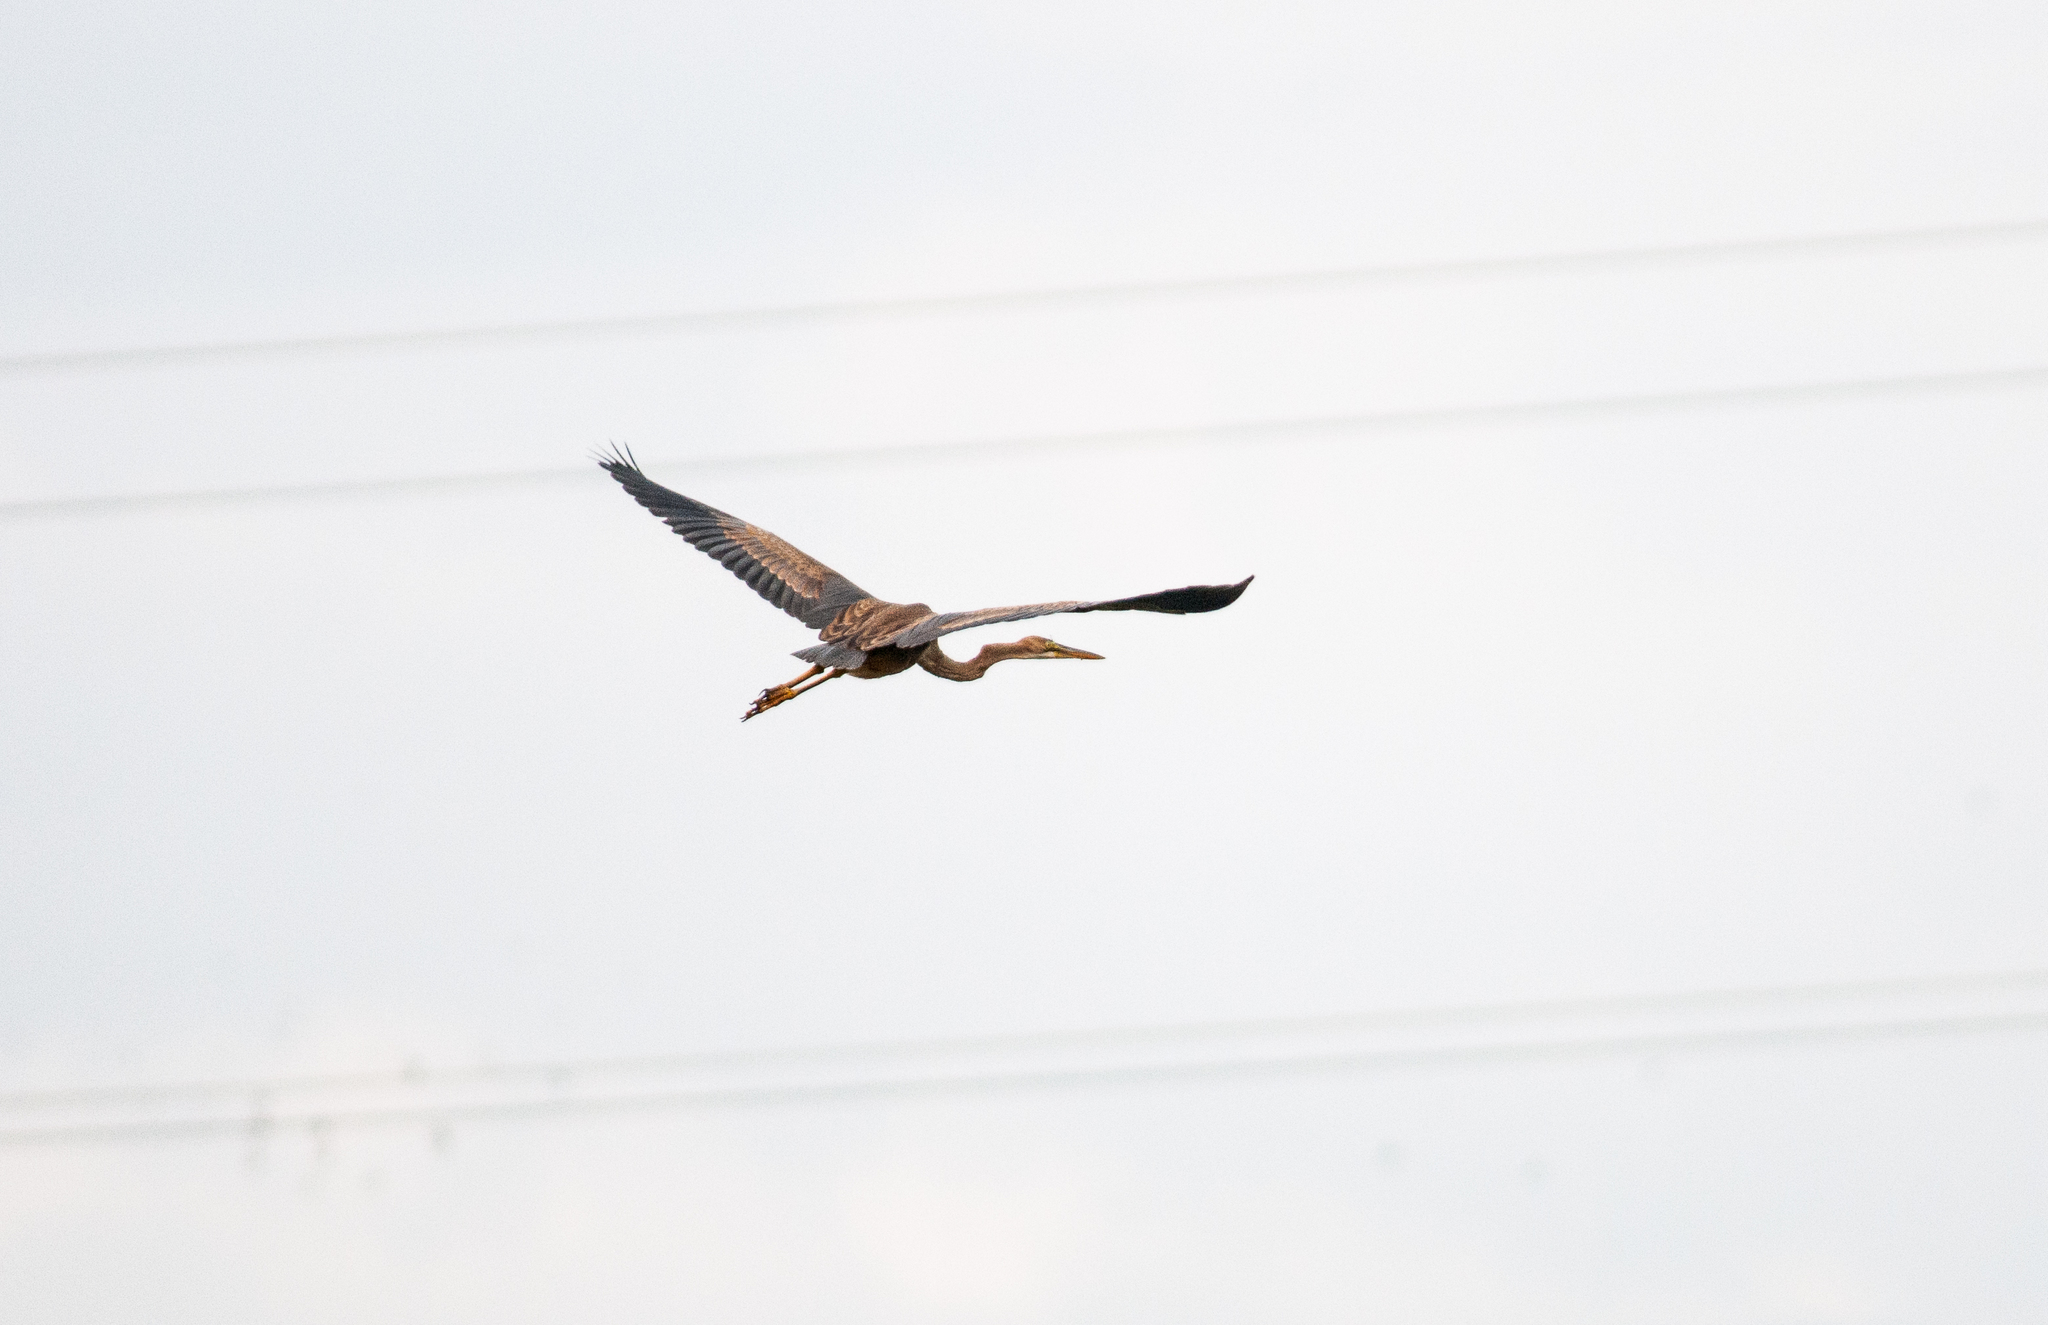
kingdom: Animalia
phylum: Chordata
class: Aves
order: Pelecaniformes
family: Ardeidae
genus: Ardea
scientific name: Ardea purpurea
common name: Purple heron
